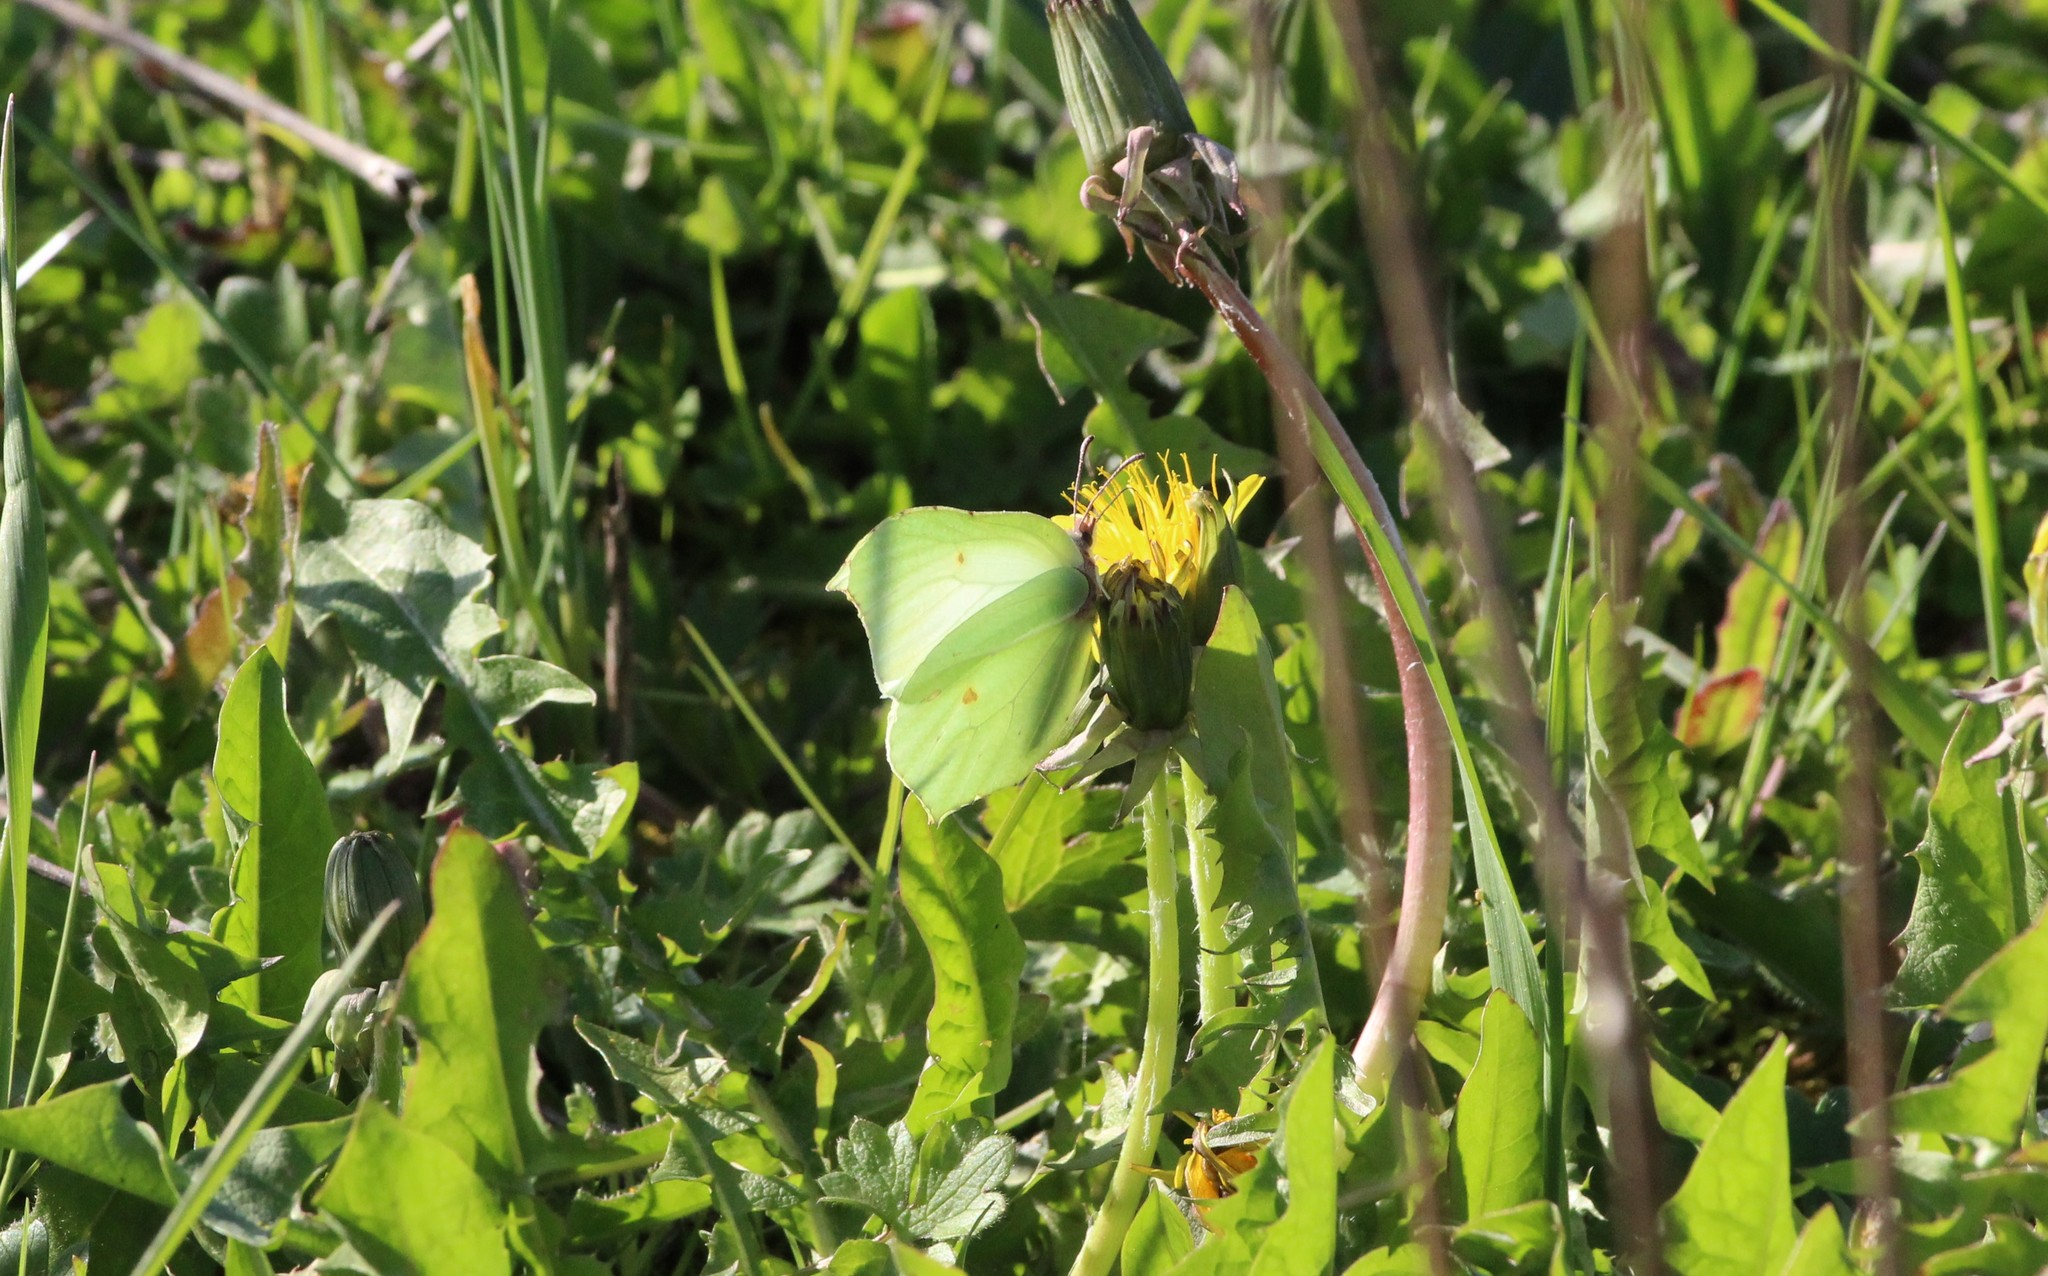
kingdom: Animalia
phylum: Arthropoda
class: Insecta
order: Lepidoptera
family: Pieridae
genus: Gonepteryx
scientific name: Gonepteryx rhamni
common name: Brimstone
